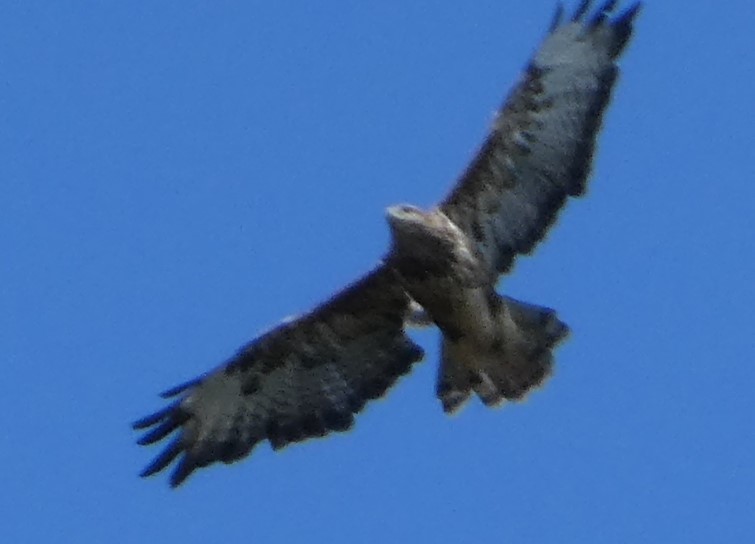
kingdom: Animalia
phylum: Chordata
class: Aves
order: Accipitriformes
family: Accipitridae
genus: Buteo
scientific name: Buteo buteo
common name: Common buzzard
